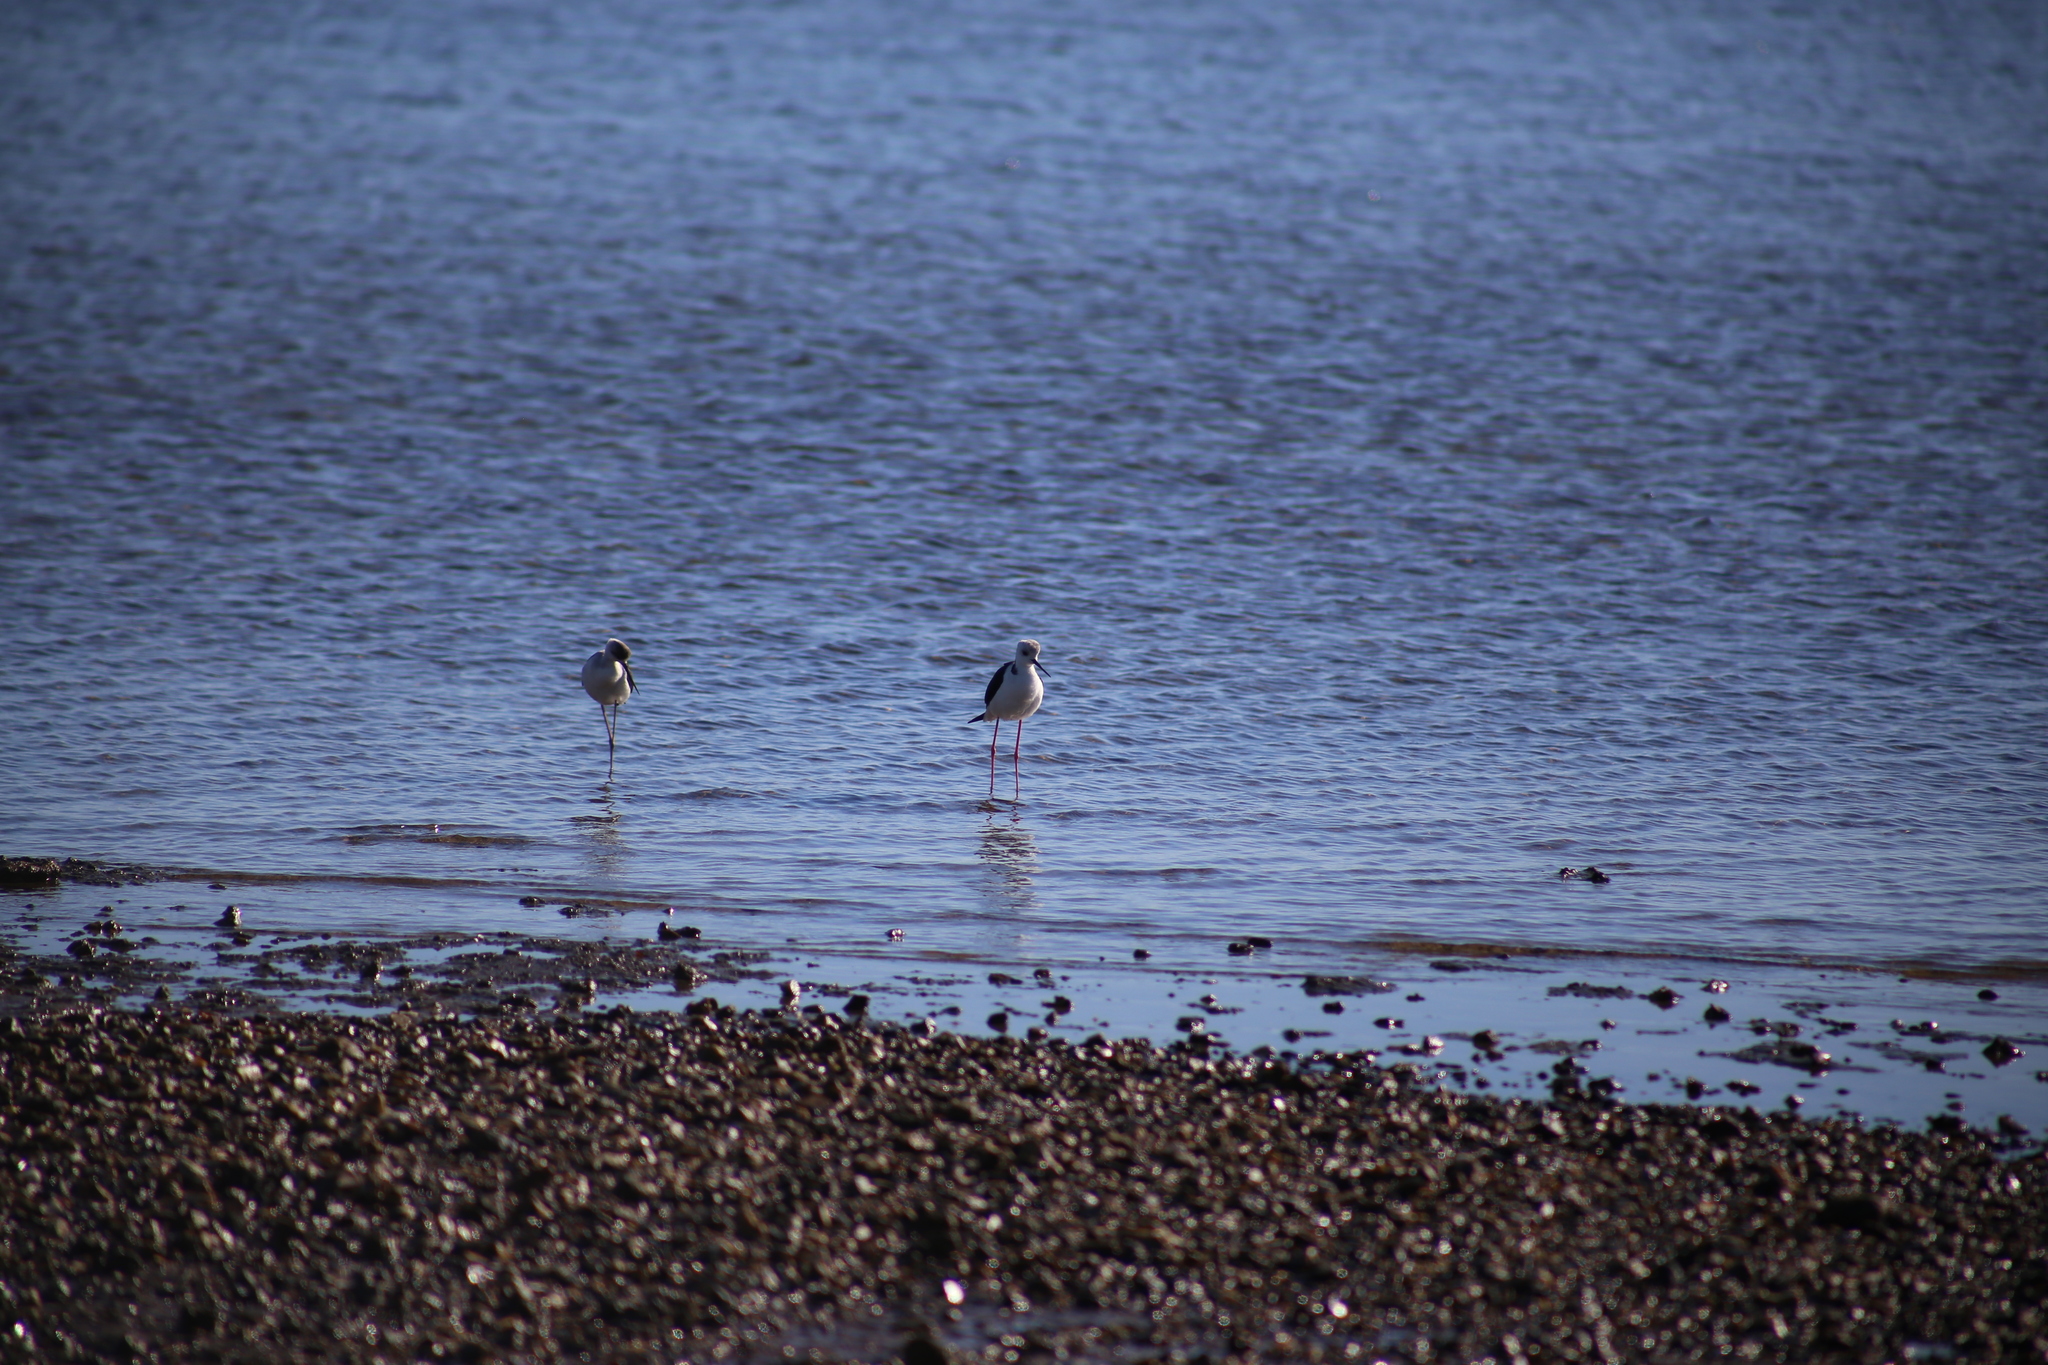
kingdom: Animalia
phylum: Chordata
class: Aves
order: Charadriiformes
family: Recurvirostridae
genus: Himantopus
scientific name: Himantopus leucocephalus
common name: White-headed stilt
